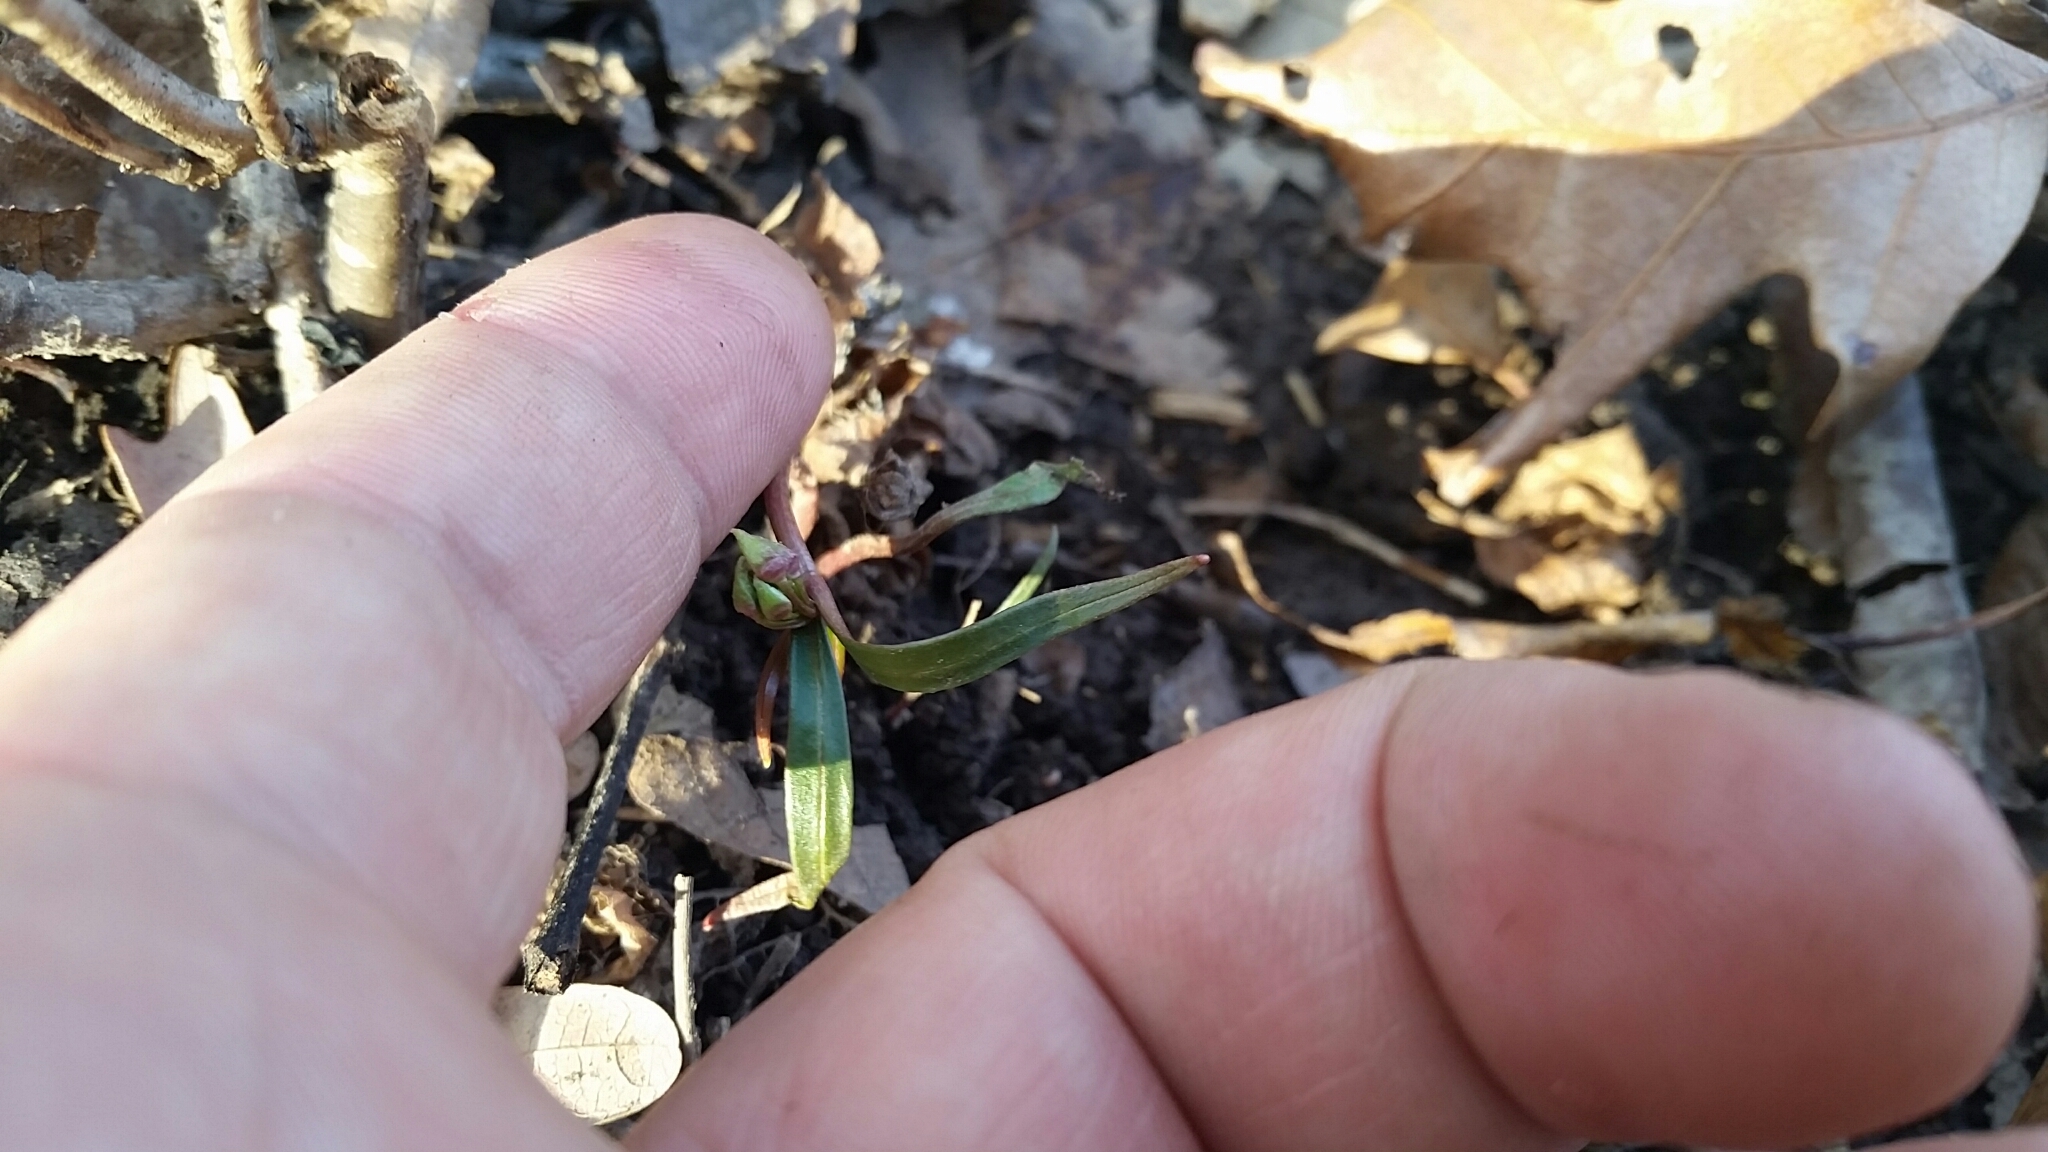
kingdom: Plantae
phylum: Tracheophyta
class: Magnoliopsida
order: Caryophyllales
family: Montiaceae
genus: Claytonia
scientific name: Claytonia virginica
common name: Virginia springbeauty
